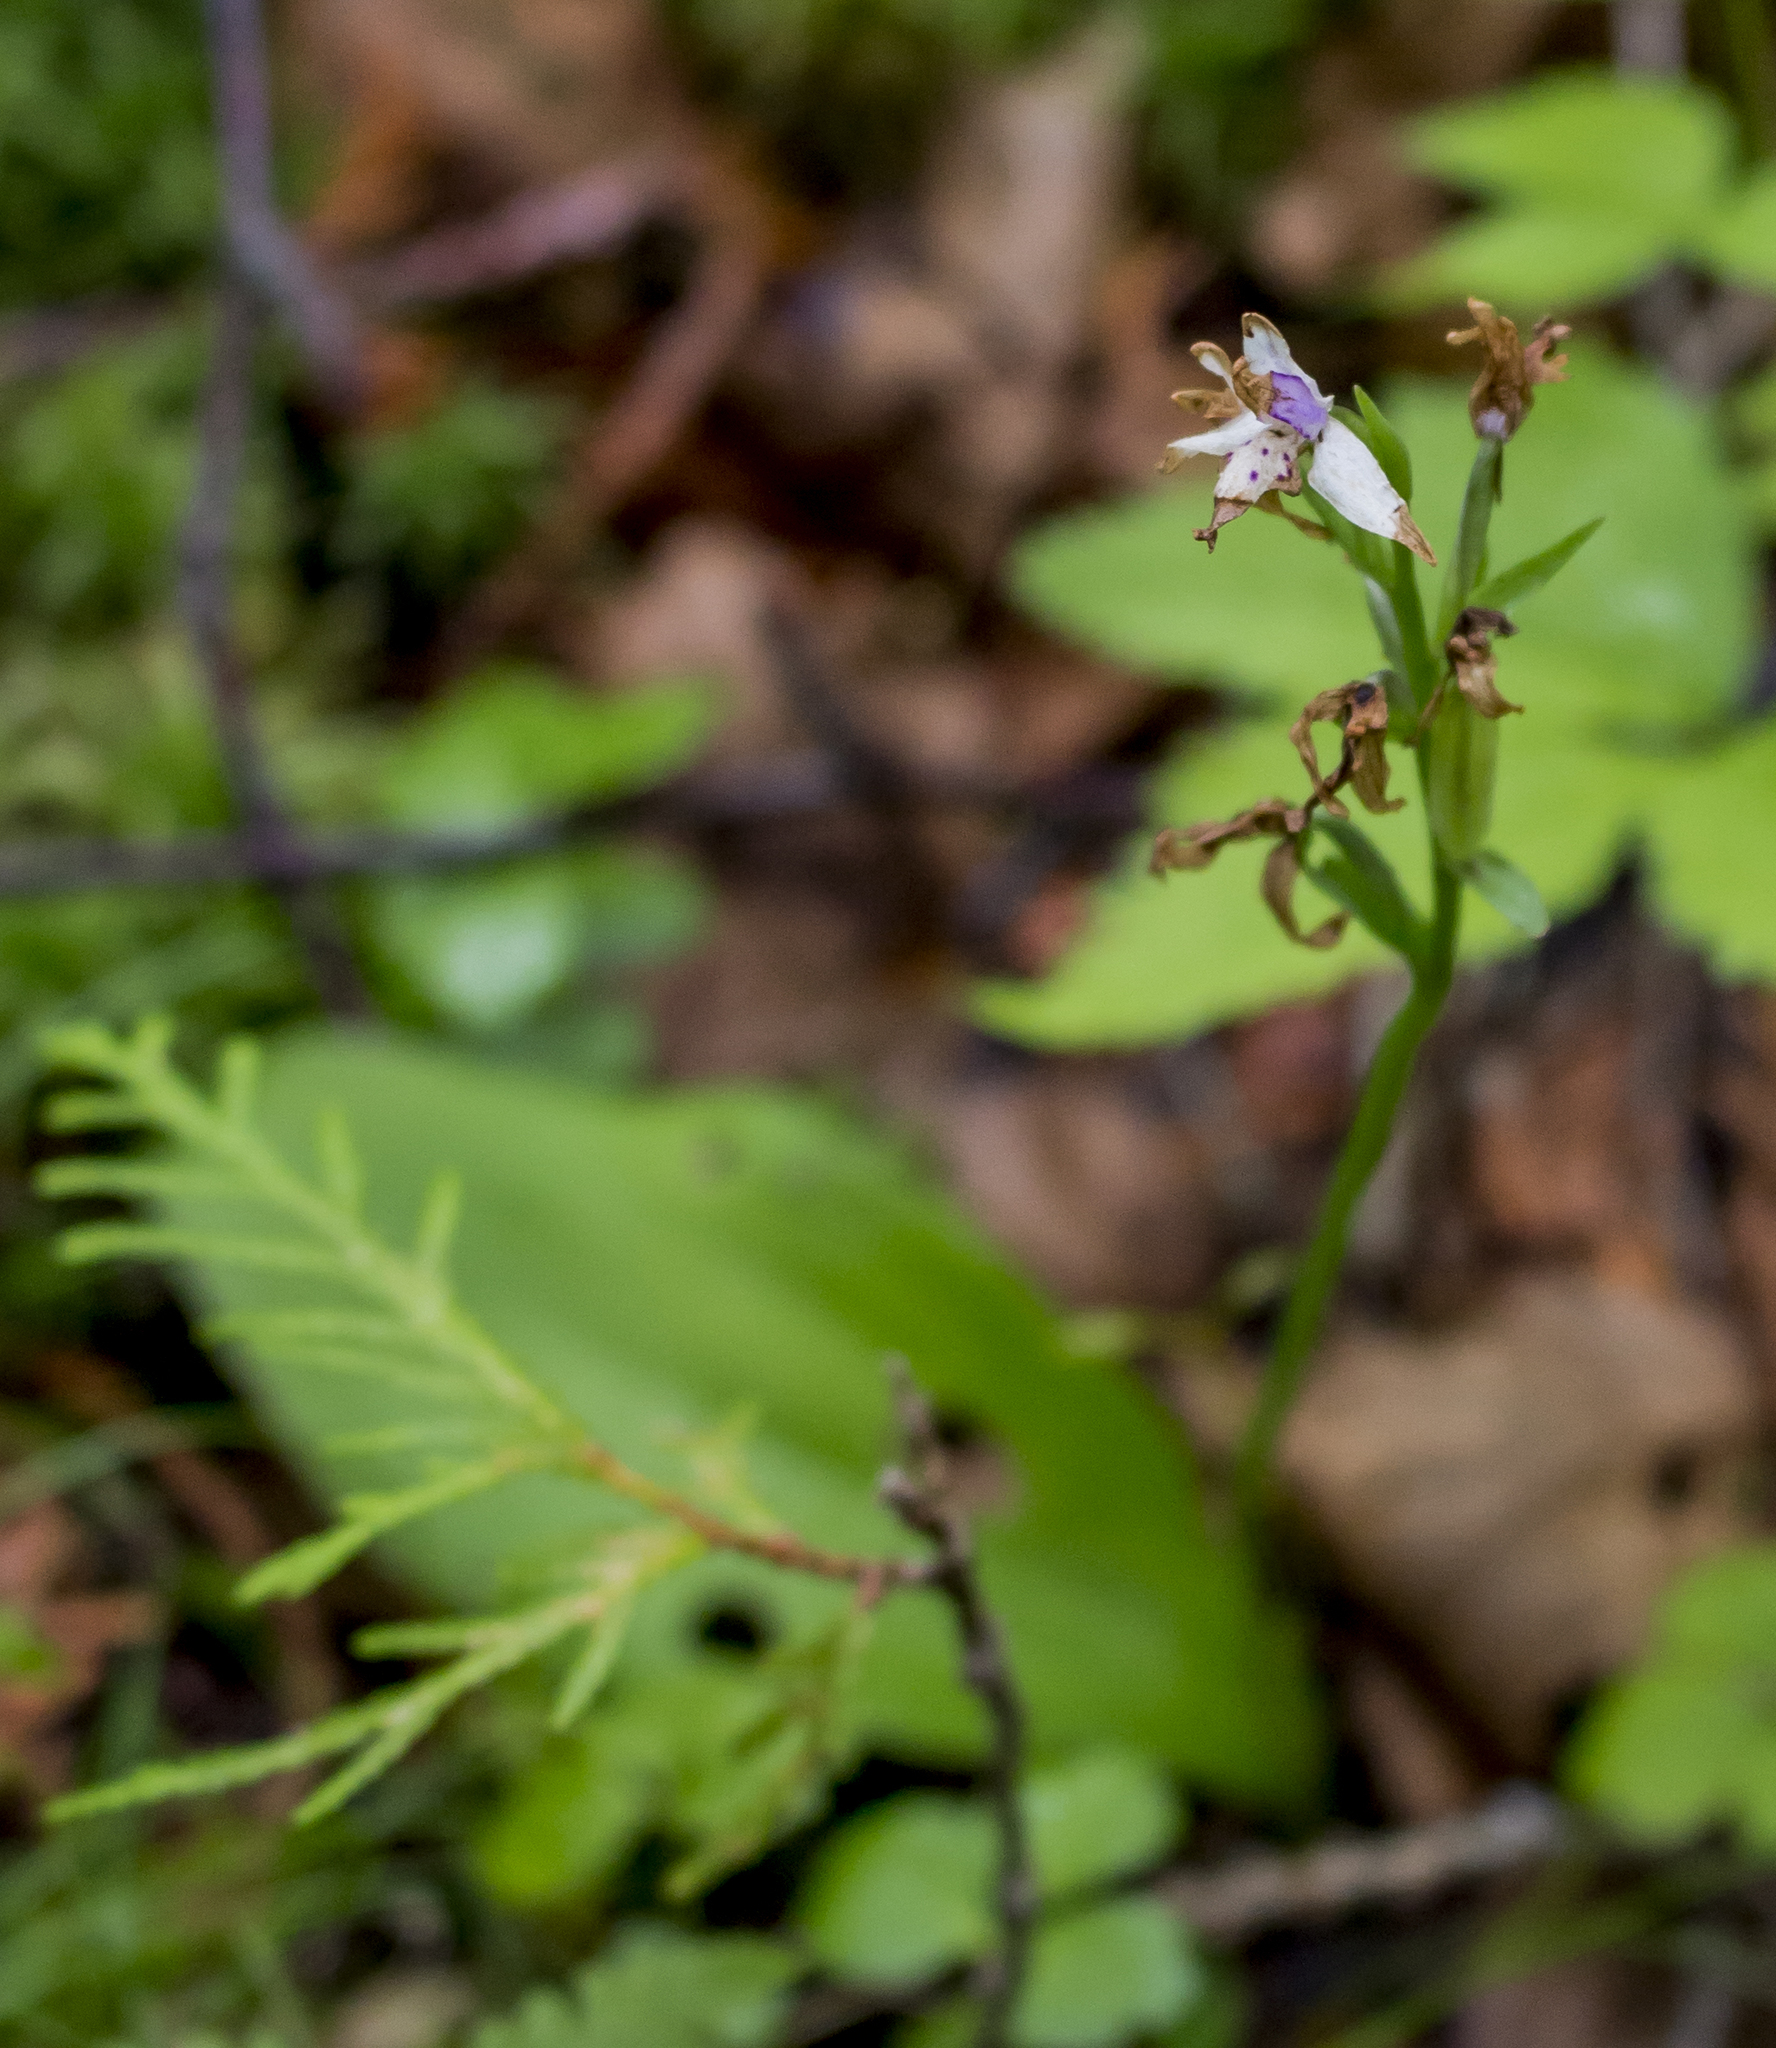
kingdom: Plantae
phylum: Tracheophyta
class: Liliopsida
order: Asparagales
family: Orchidaceae
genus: Galearis
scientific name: Galearis rotundifolia
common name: One-leaved orchis
